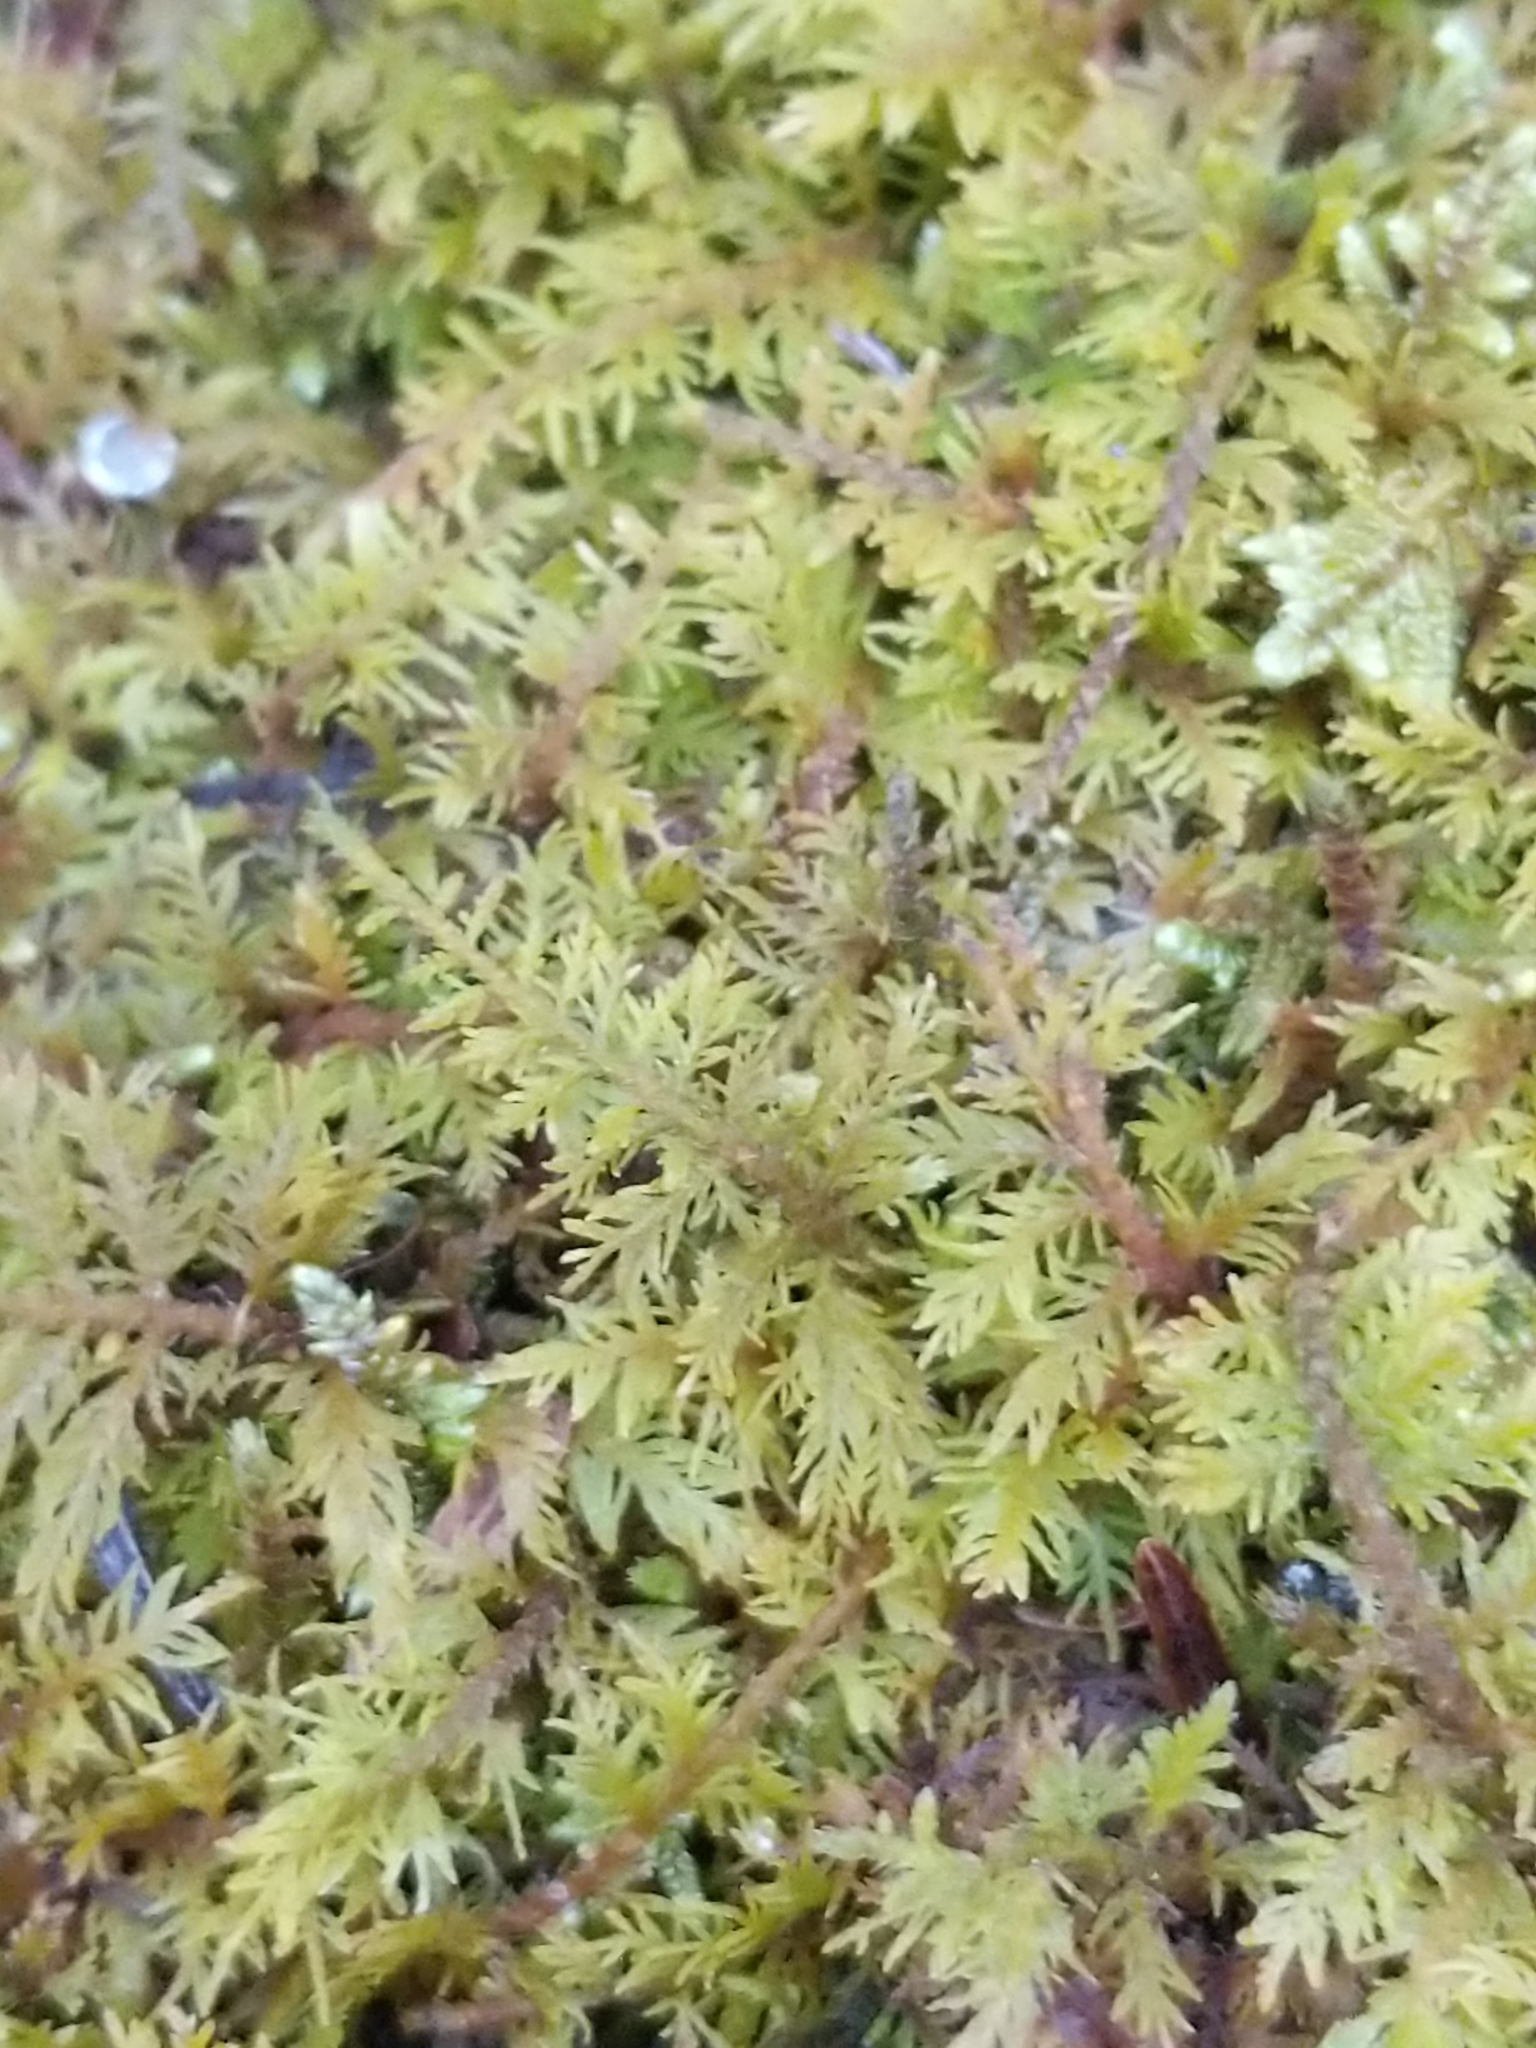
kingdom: Plantae
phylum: Bryophyta
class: Bryopsida
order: Hypnales
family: Thuidiaceae
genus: Thuidium
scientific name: Thuidium delicatulum
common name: Delicate fern moss
